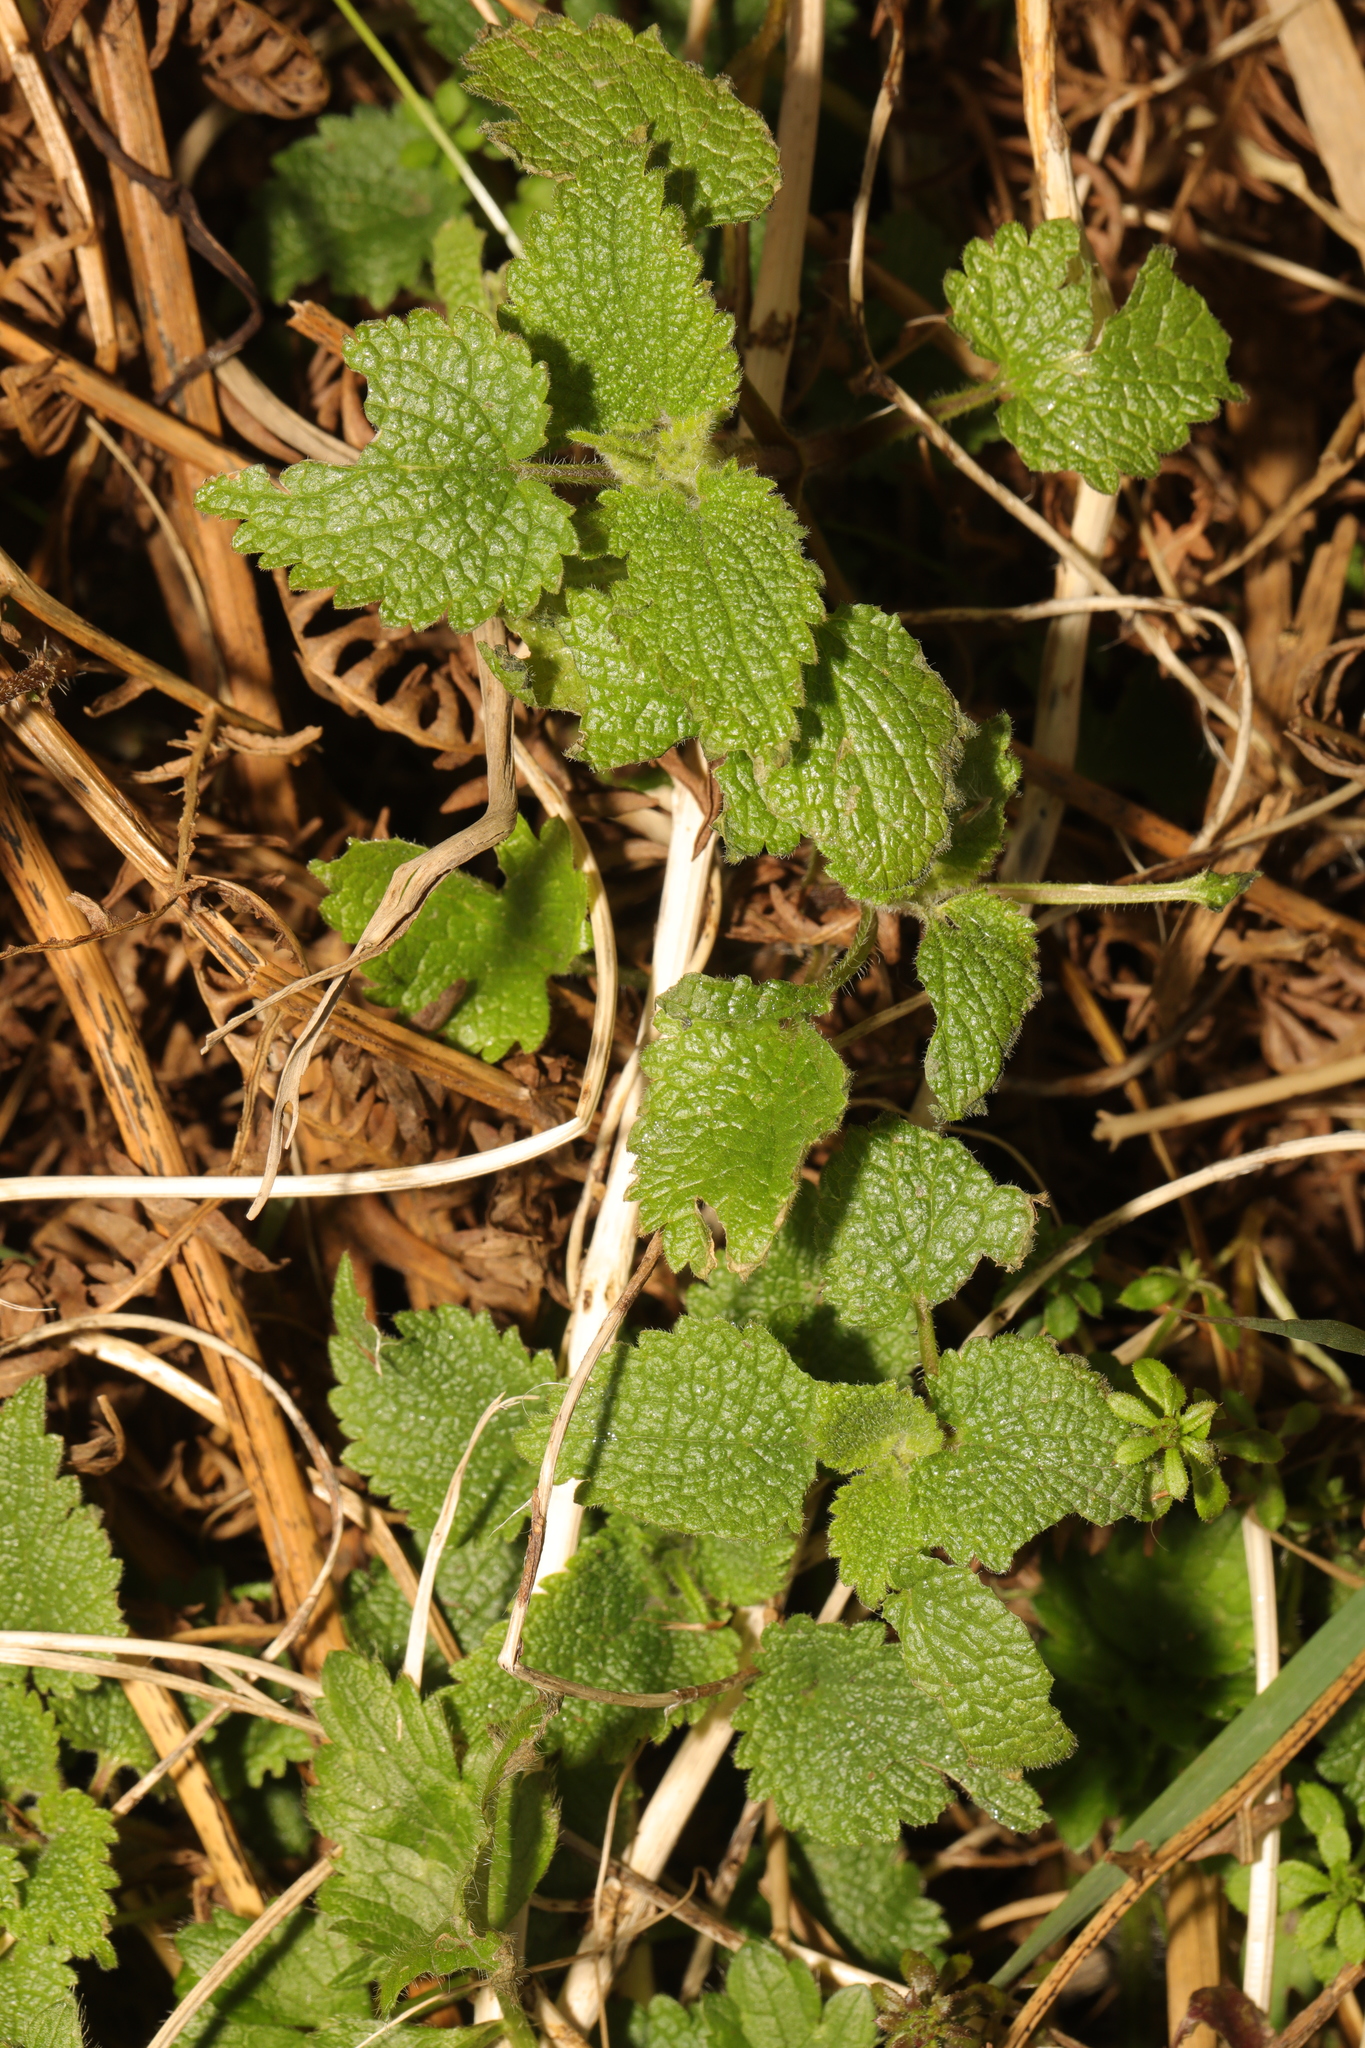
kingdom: Plantae
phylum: Tracheophyta
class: Magnoliopsida
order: Lamiales
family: Lamiaceae
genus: Lamium
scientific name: Lamium album
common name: White dead-nettle
